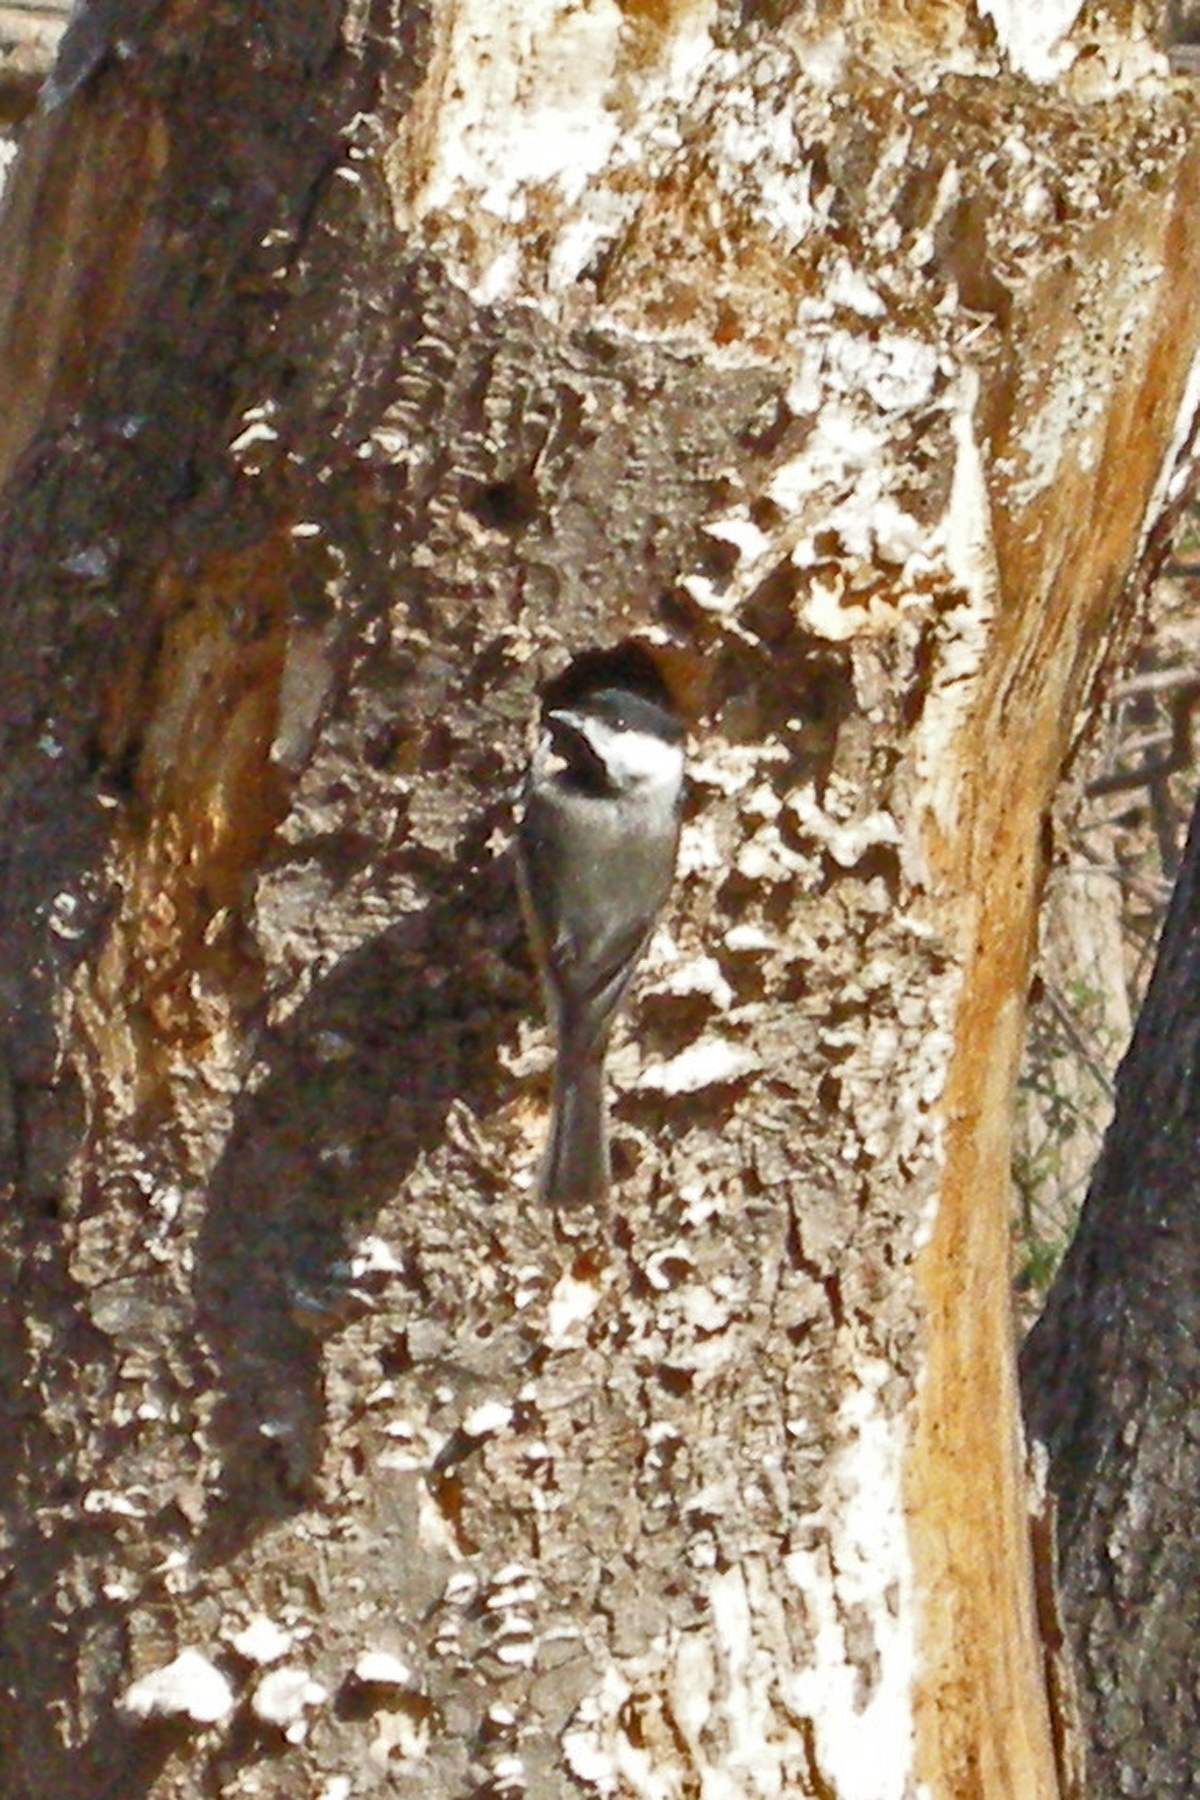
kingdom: Animalia
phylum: Chordata
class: Aves
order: Passeriformes
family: Paridae
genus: Poecile
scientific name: Poecile carolinensis
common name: Carolina chickadee
